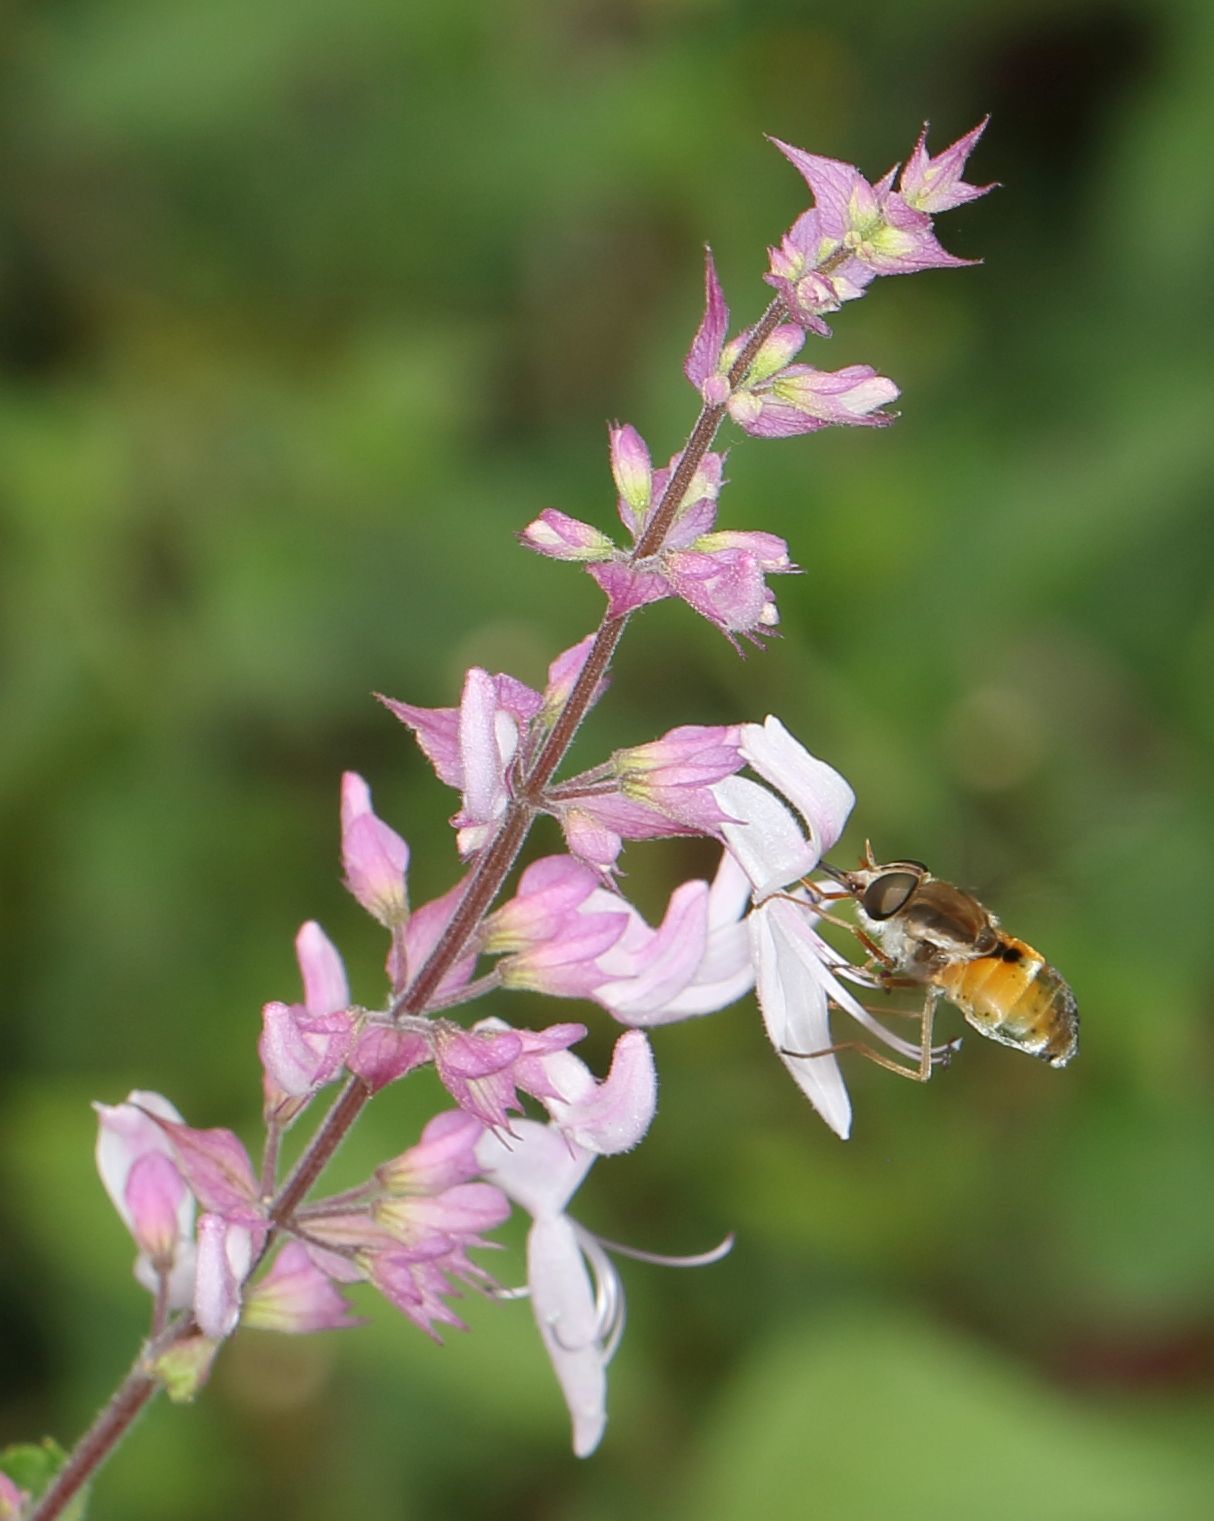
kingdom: Plantae
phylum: Tracheophyta
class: Magnoliopsida
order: Lamiales
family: Lamiaceae
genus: Ocimum
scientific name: Ocimum labiatum
